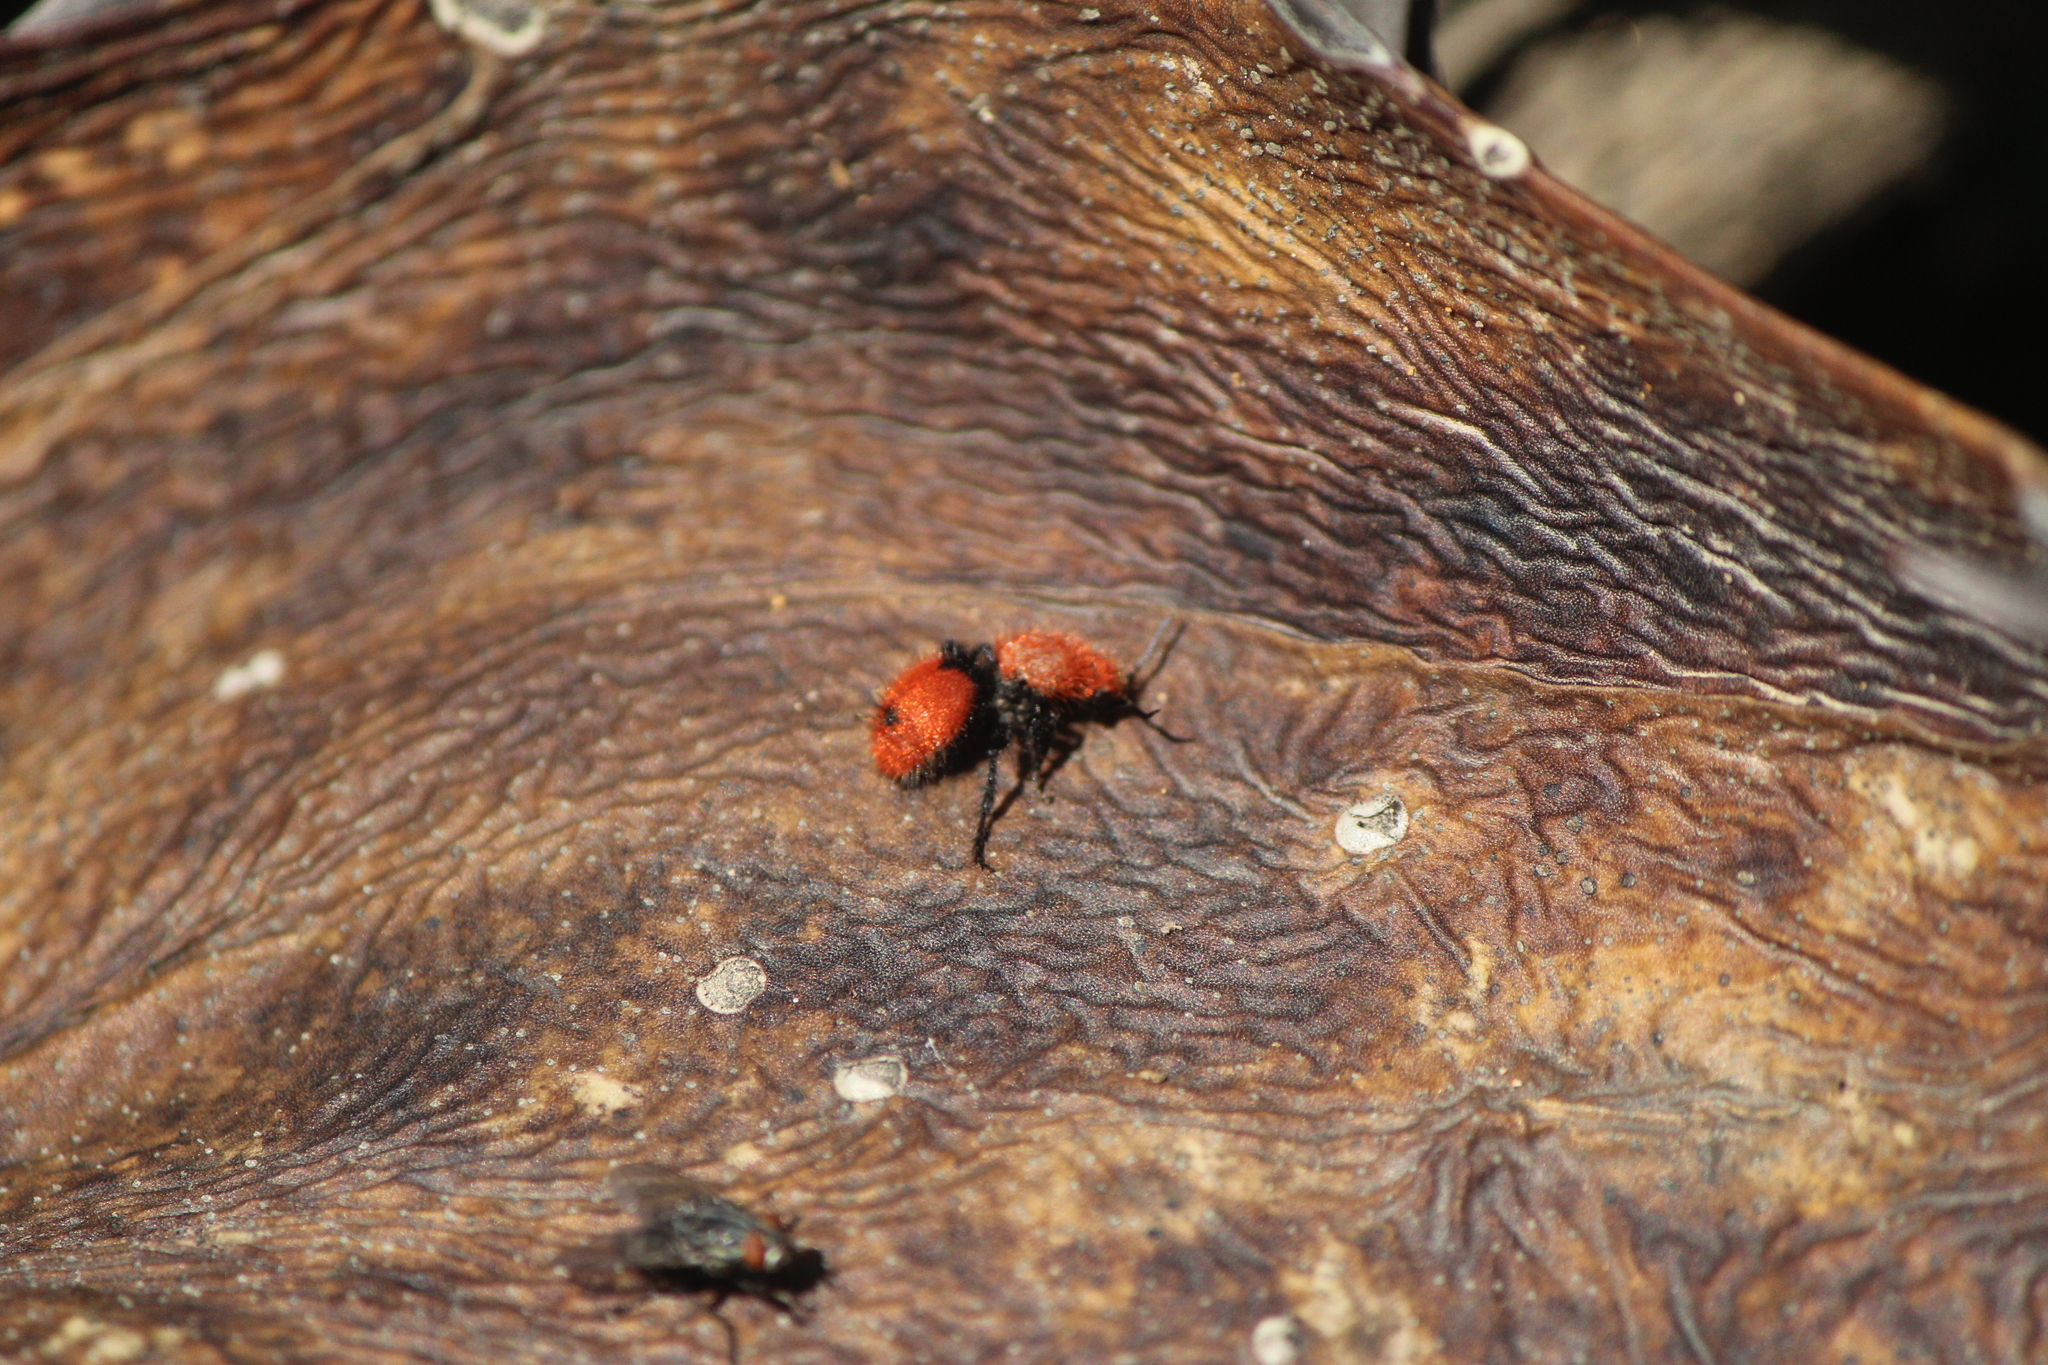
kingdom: Animalia
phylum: Arthropoda
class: Insecta
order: Hymenoptera
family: Mutillidae
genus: Dasymutilla
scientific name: Dasymutilla
